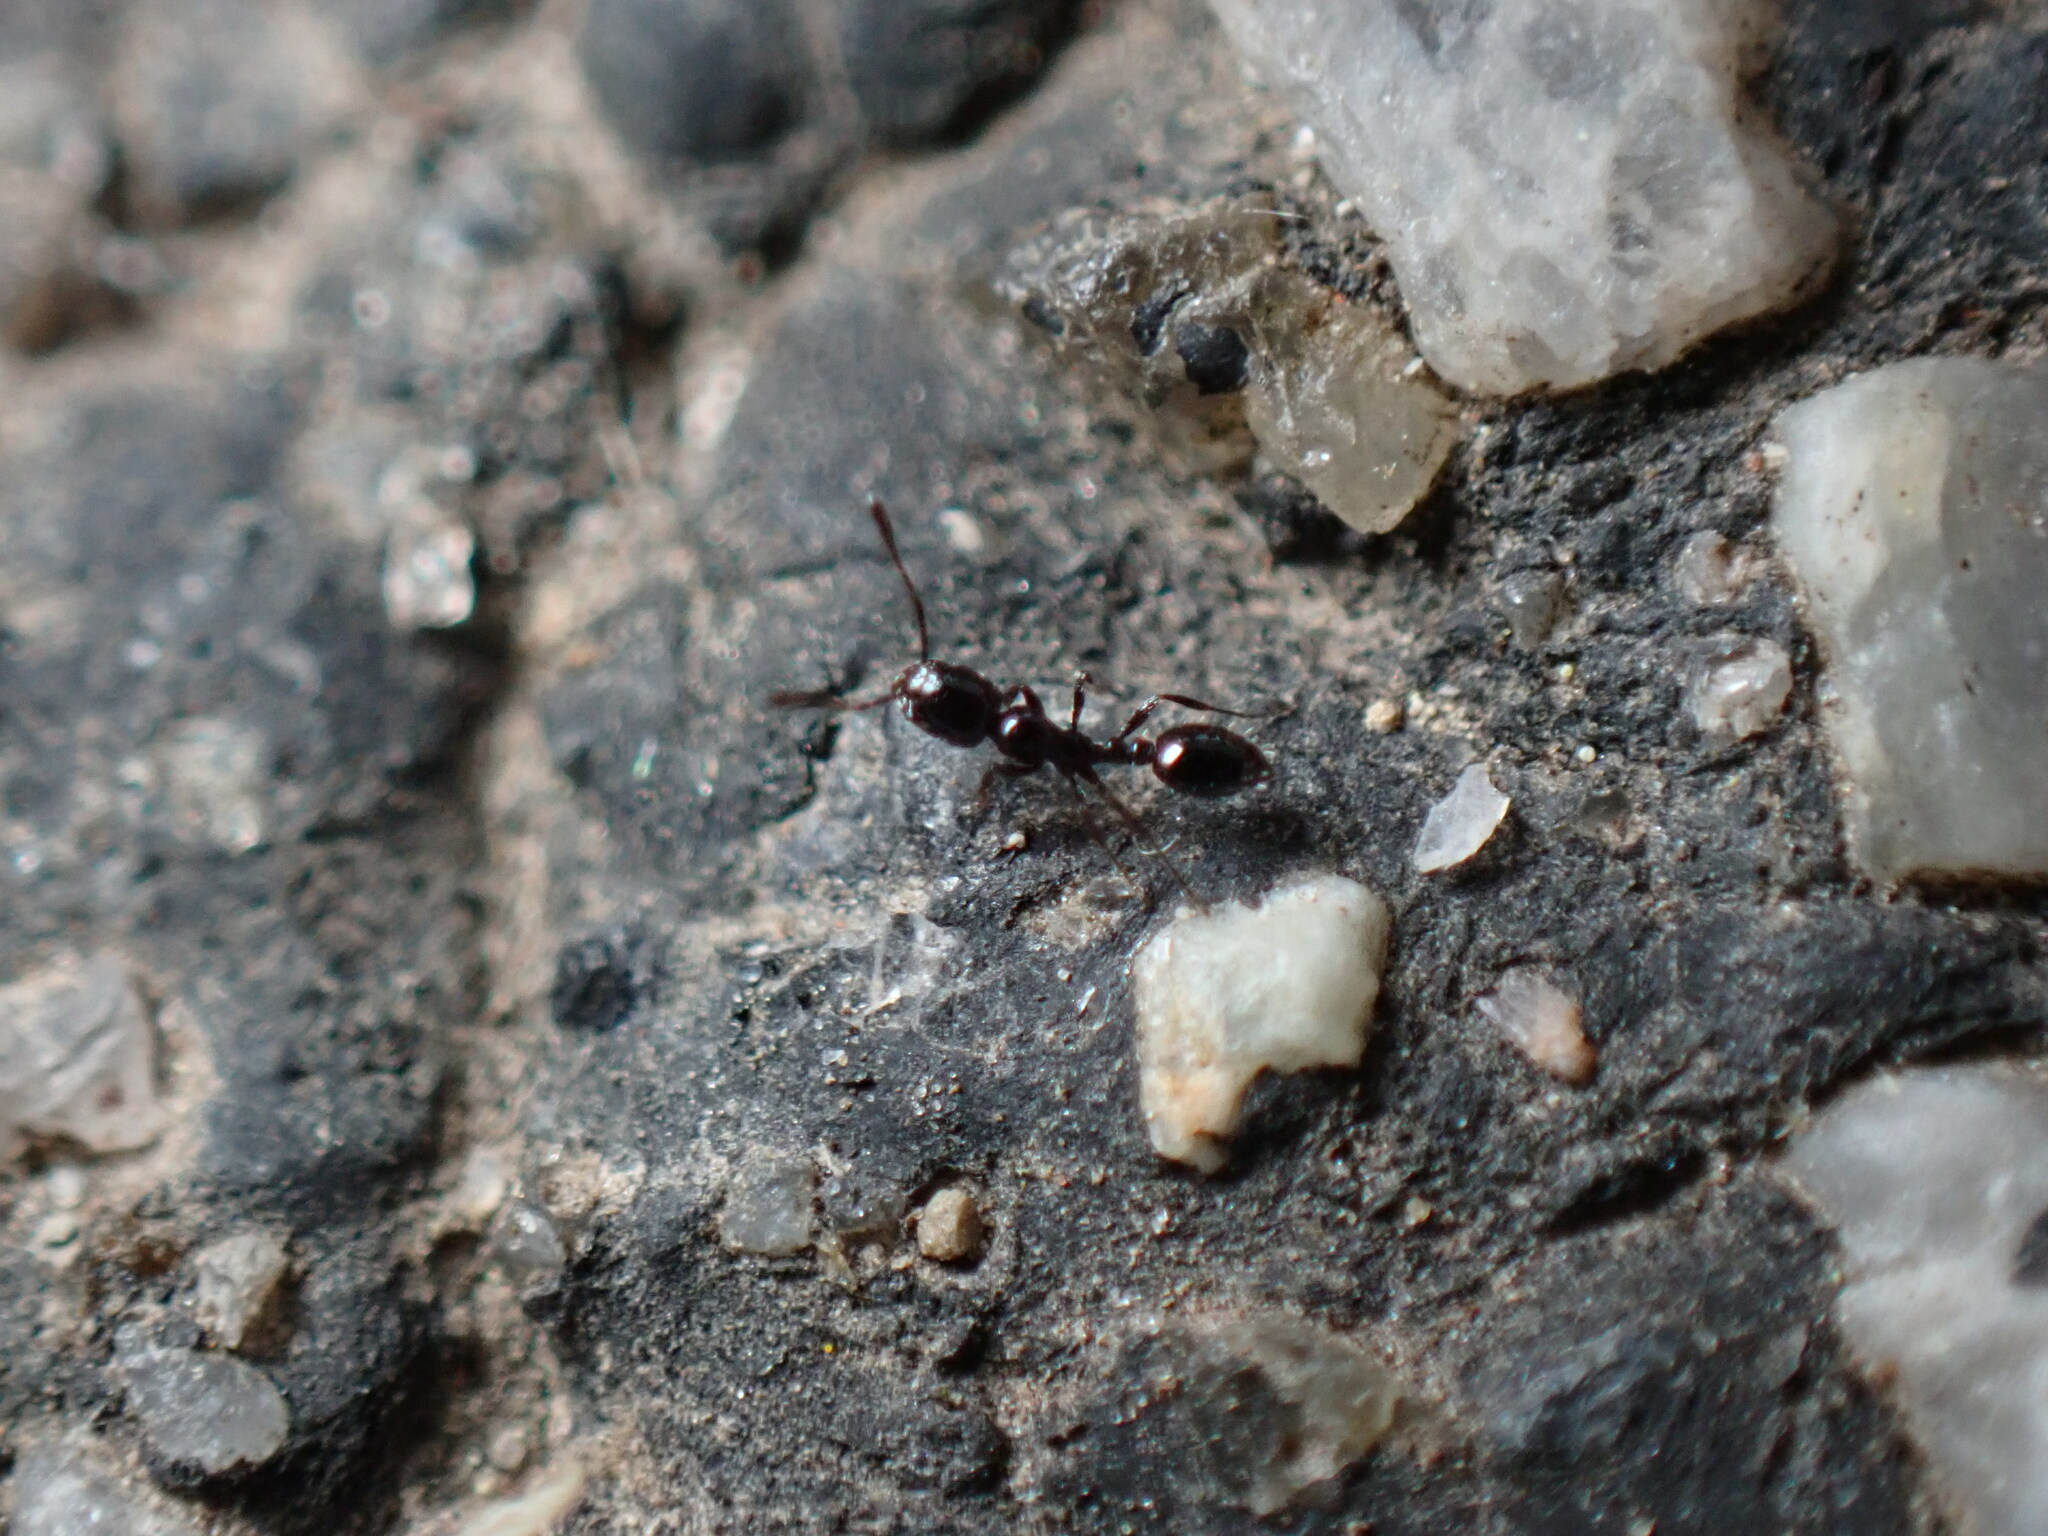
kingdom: Animalia
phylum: Arthropoda
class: Insecta
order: Hymenoptera
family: Formicidae
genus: Monomorium
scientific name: Monomorium
